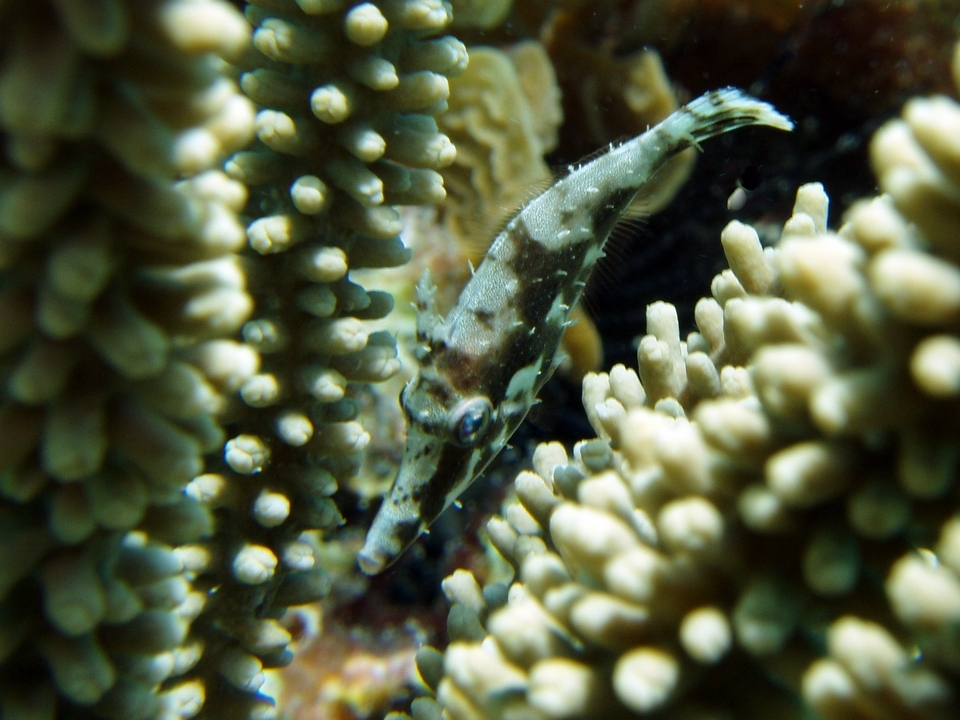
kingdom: Animalia
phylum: Chordata
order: Tetraodontiformes
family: Monacanthidae
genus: Monacanthus
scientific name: Monacanthus tuckeri
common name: Slender filefish
